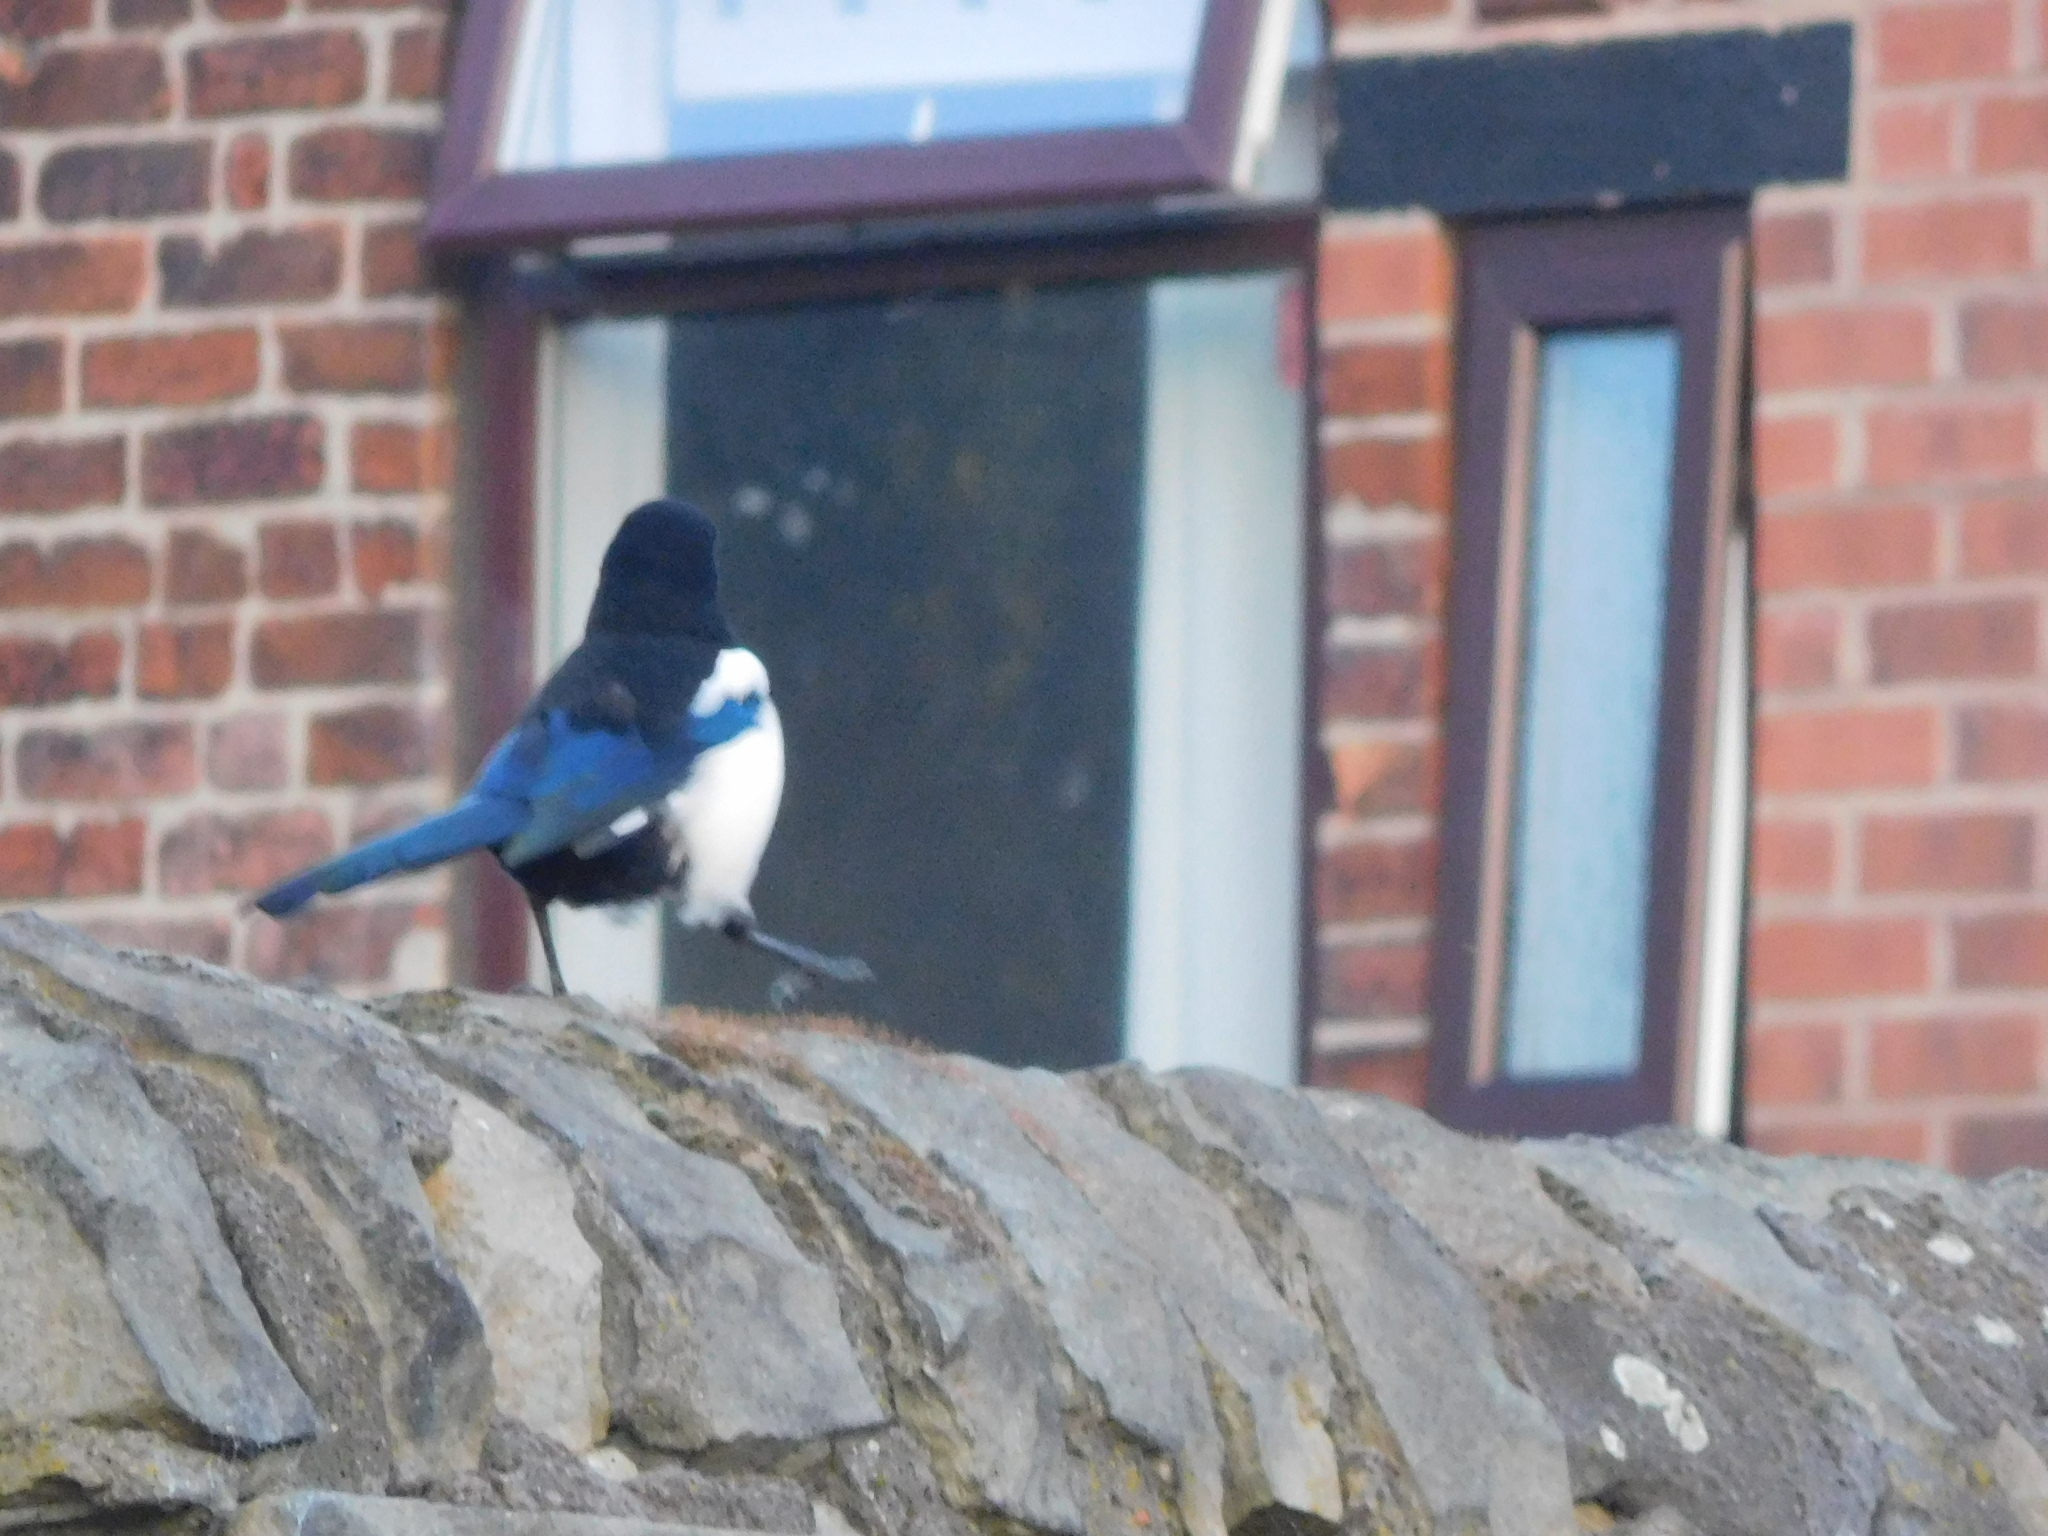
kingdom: Animalia
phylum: Chordata
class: Aves
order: Passeriformes
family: Corvidae
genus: Pica
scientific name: Pica pica
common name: Eurasian magpie
